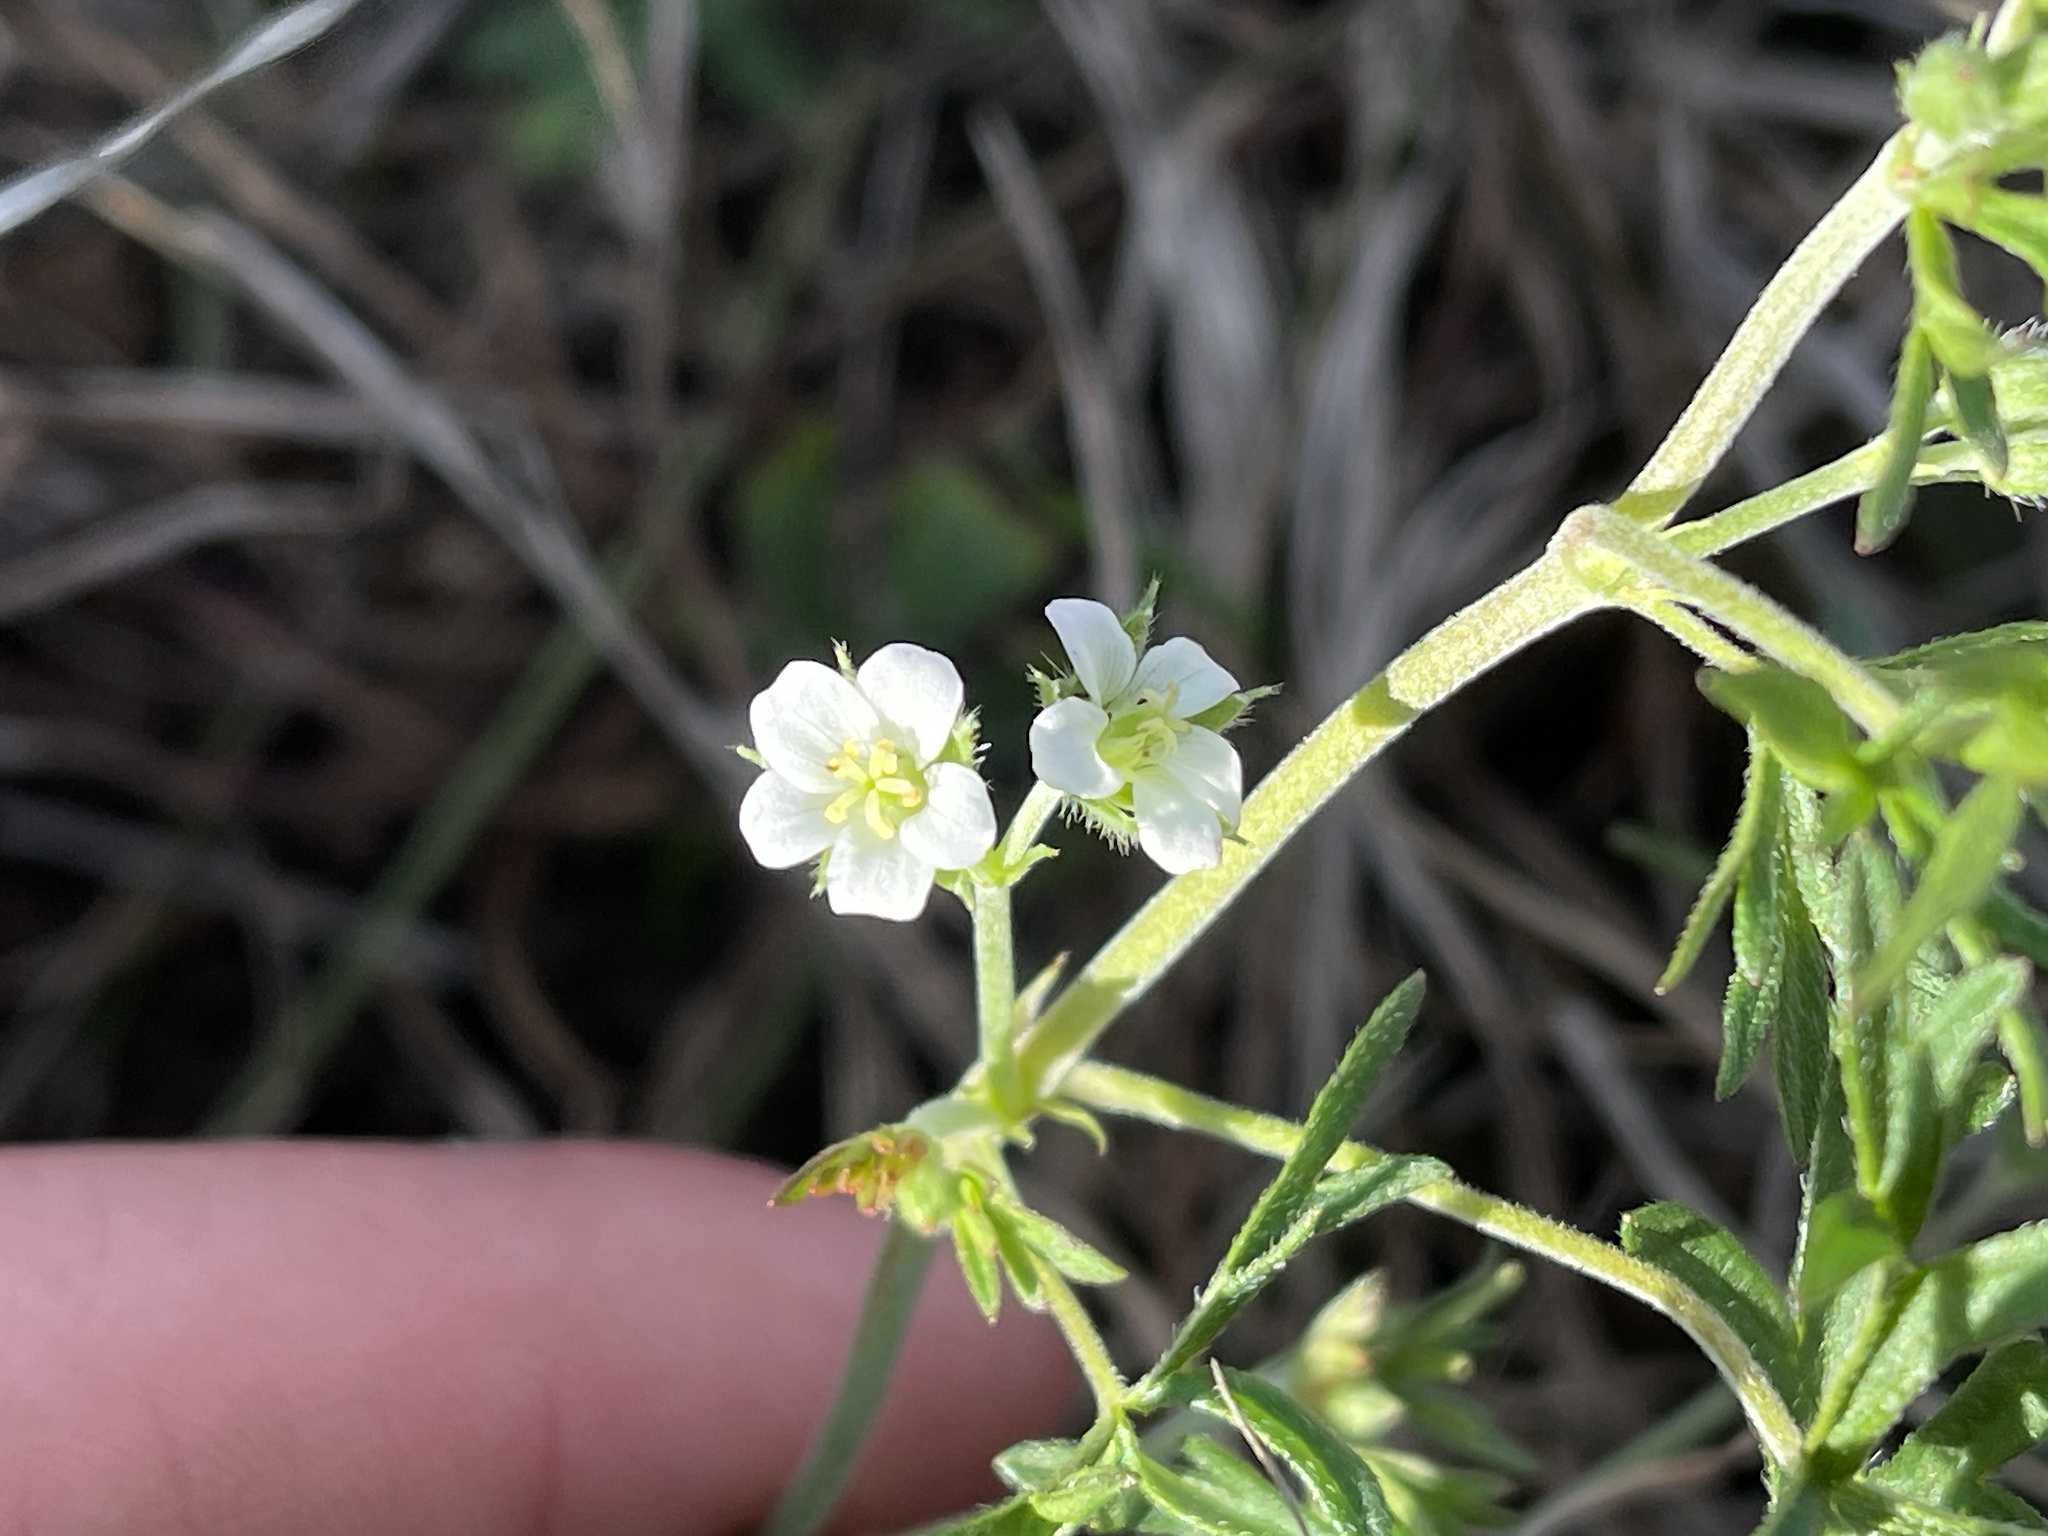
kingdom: Plantae
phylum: Tracheophyta
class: Magnoliopsida
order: Geraniales
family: Geraniaceae
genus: Geranium
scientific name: Geranium retrorsum
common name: New zealand geranium
